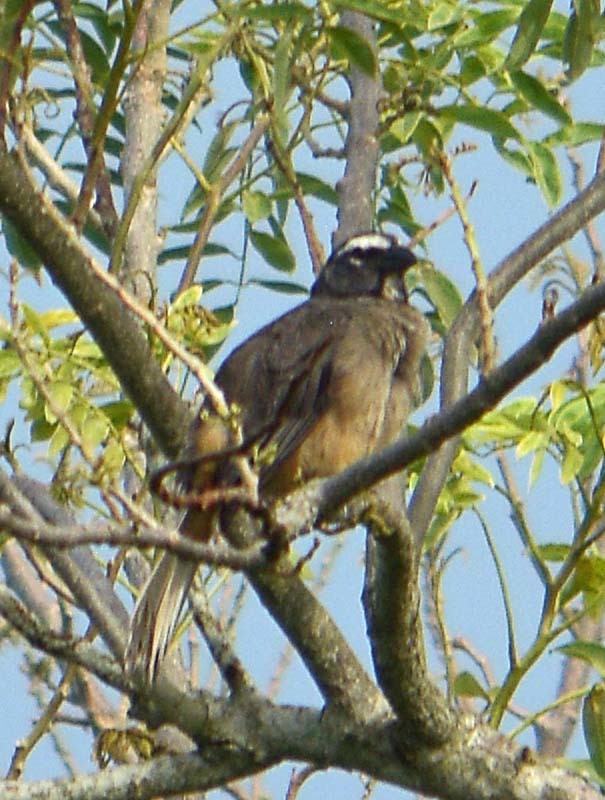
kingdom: Animalia
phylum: Chordata
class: Aves
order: Passeriformes
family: Thraupidae
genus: Saltator
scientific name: Saltator grandis
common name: Cinnamon-bellied saltator
